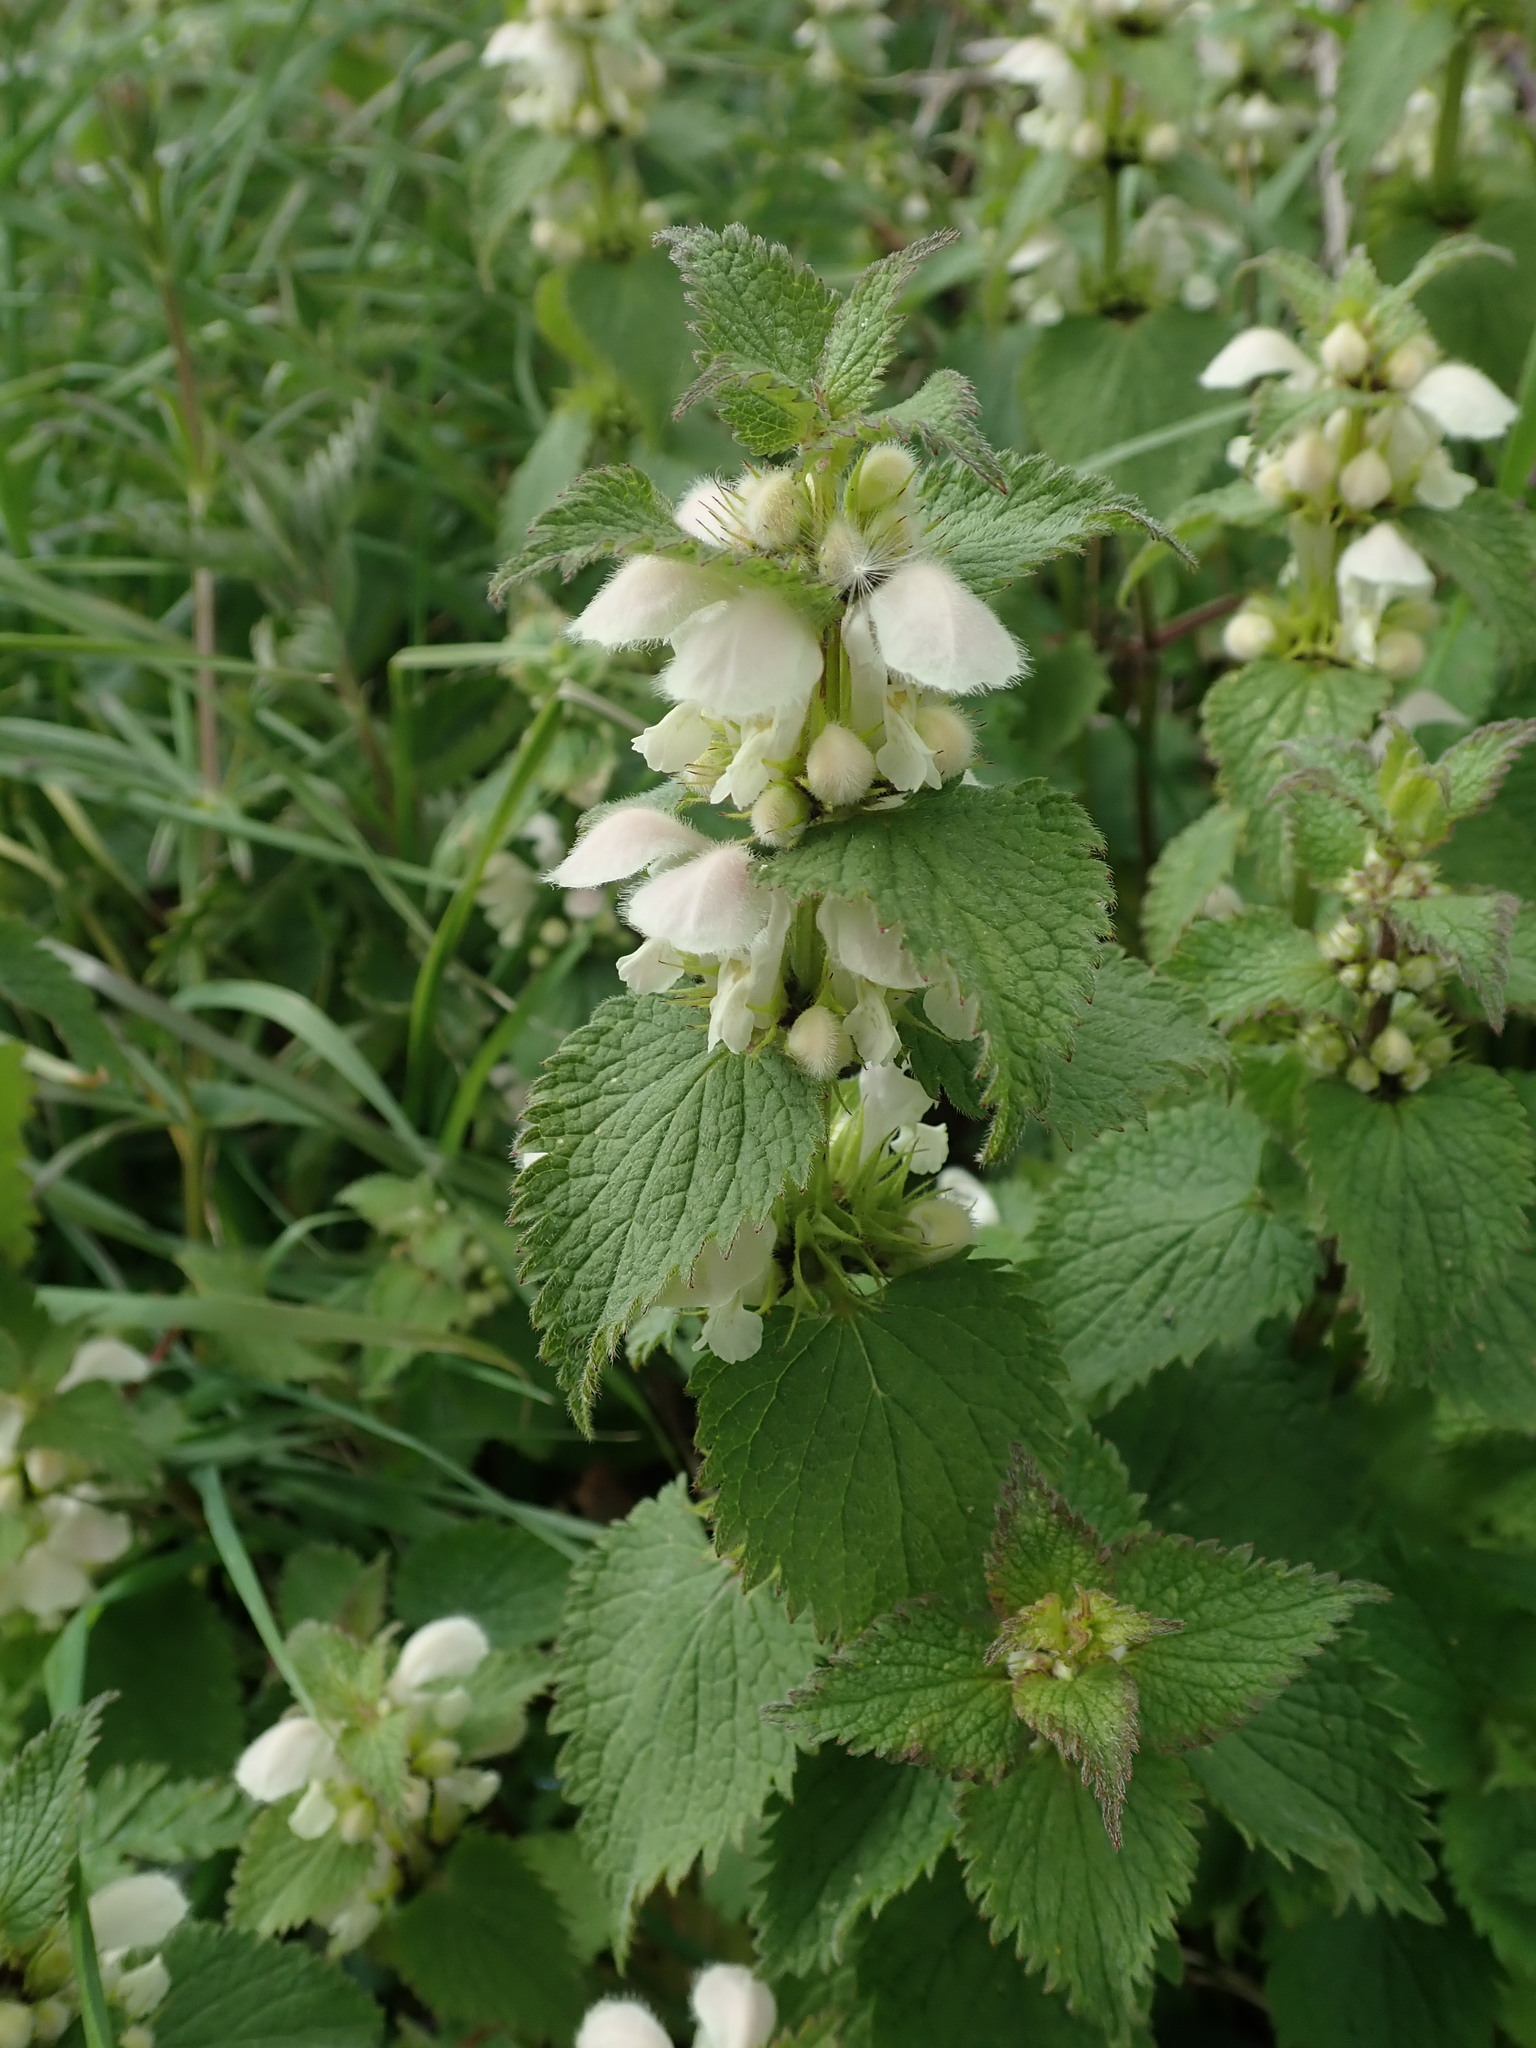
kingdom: Plantae
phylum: Tracheophyta
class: Magnoliopsida
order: Lamiales
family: Lamiaceae
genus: Lamium
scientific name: Lamium album
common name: White dead-nettle
